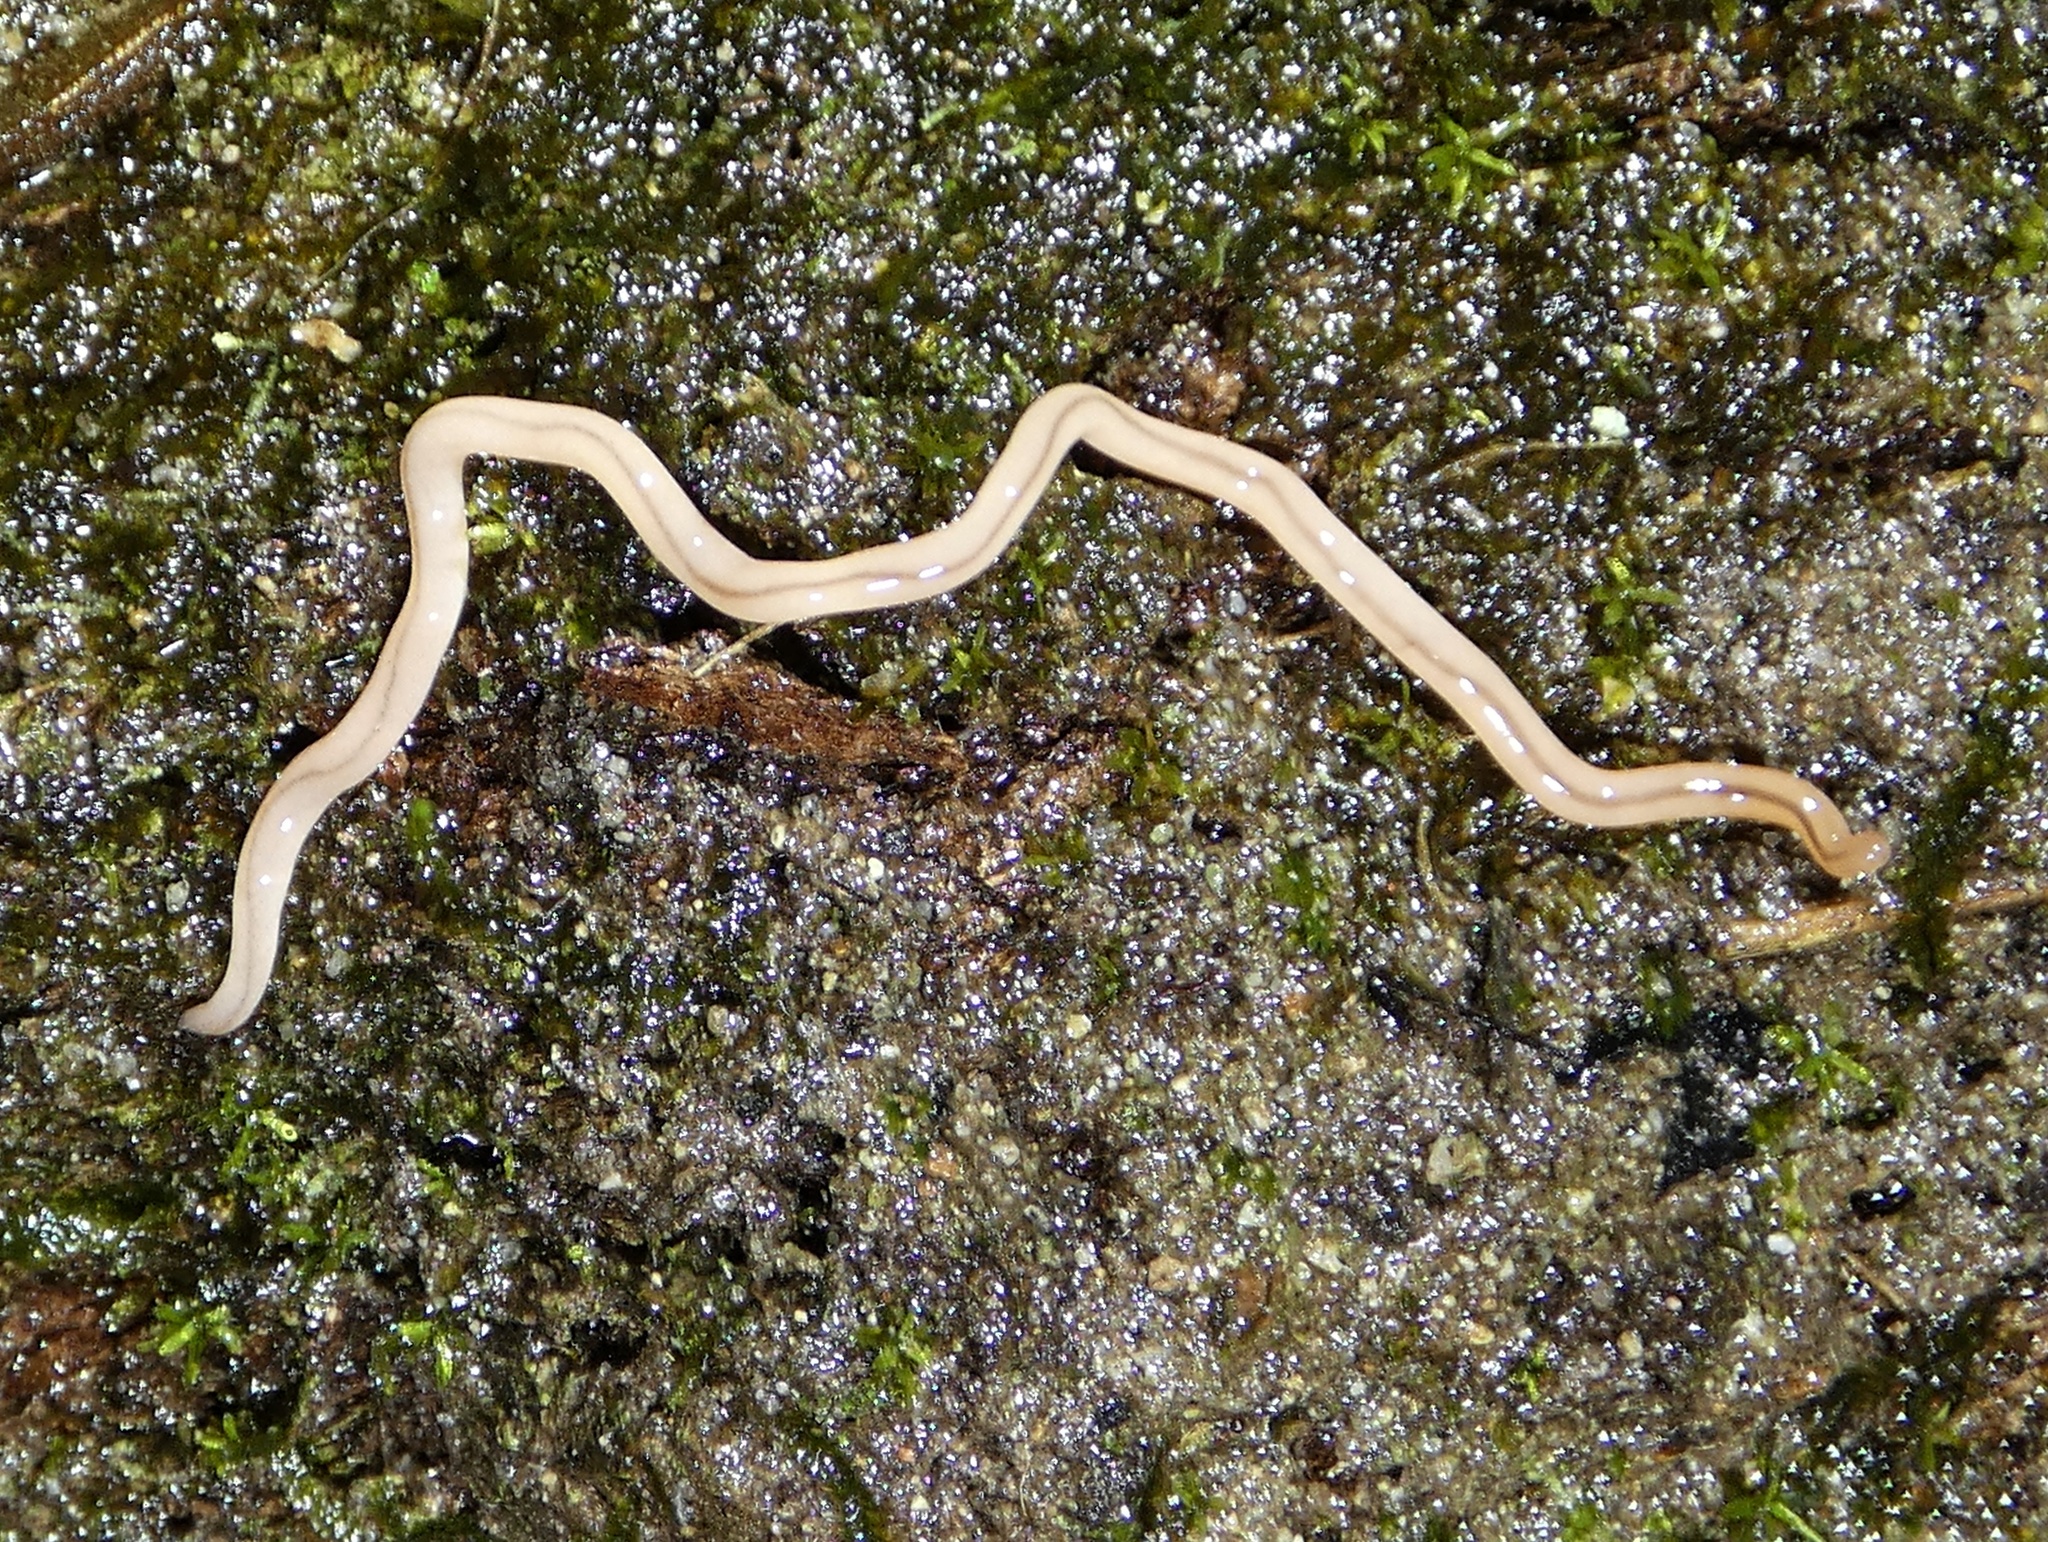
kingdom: Animalia
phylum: Nemertea
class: Hoplonemertea
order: Monostilifera
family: Prosorhochmidae
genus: Geonemertes
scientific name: Geonemertes pelaensis
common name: Land nemertean
